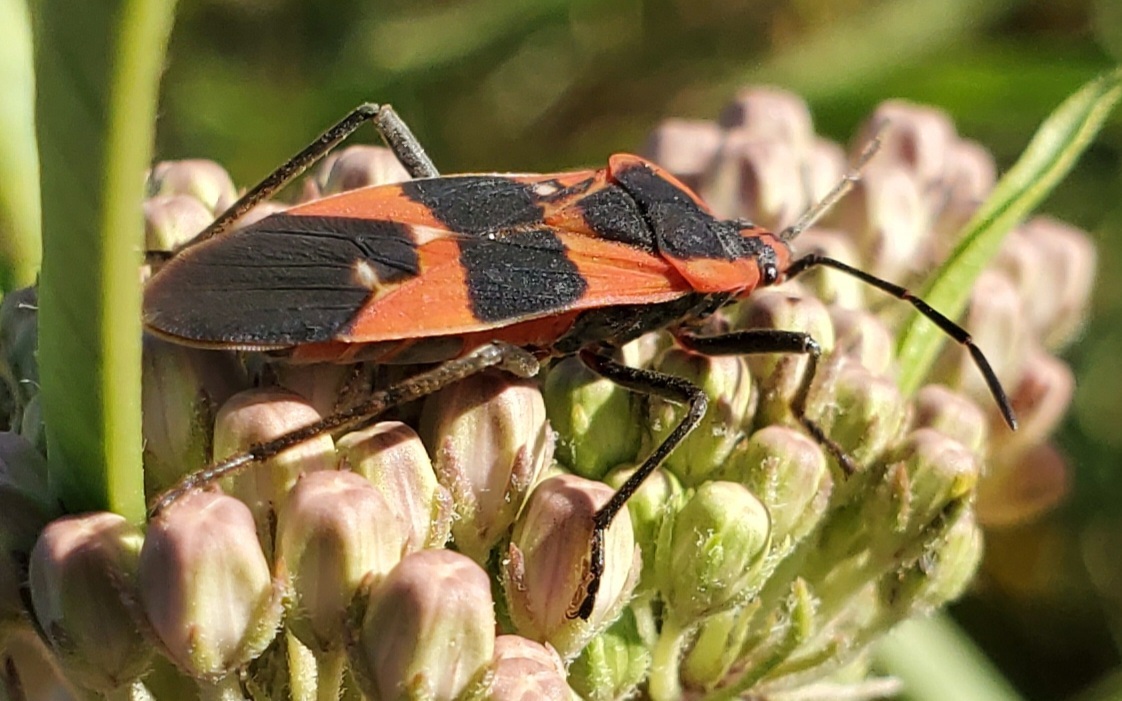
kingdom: Animalia
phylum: Arthropoda
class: Insecta
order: Hemiptera
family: Lygaeidae
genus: Oncopeltus
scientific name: Oncopeltus fasciatus
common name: Large milkweed bug
